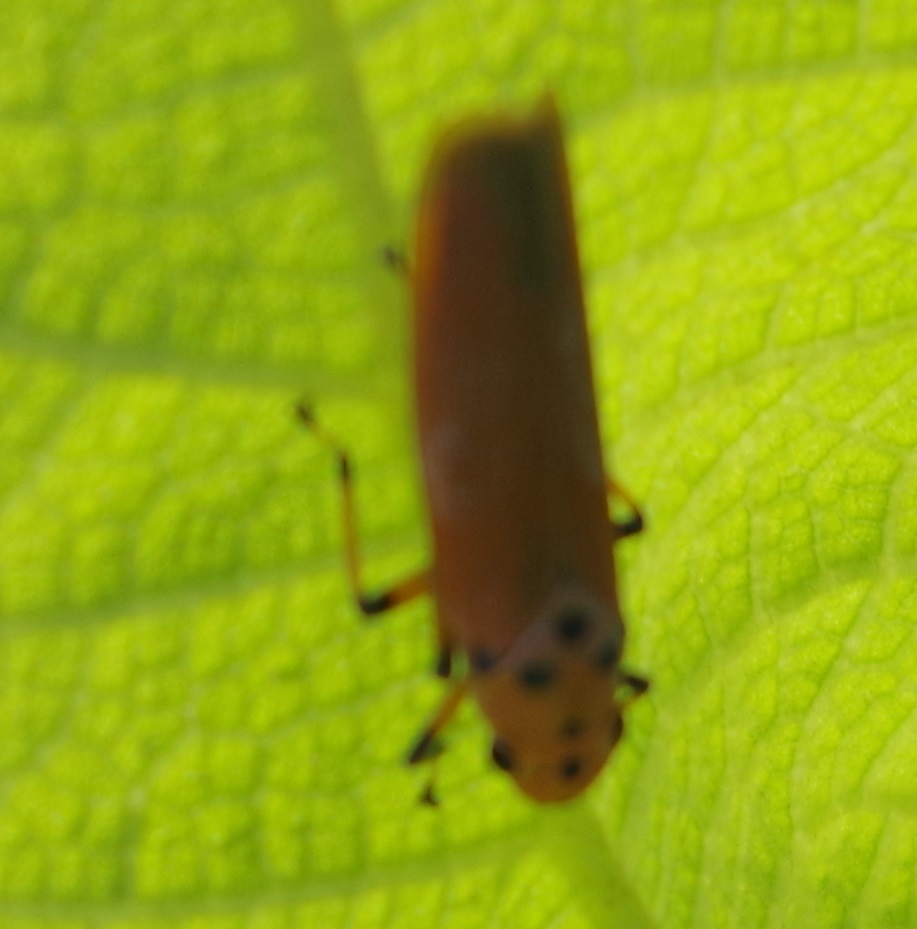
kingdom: Animalia
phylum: Arthropoda
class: Insecta
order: Hemiptera
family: Cicadellidae
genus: Bothrogonia
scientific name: Bothrogonia addita
